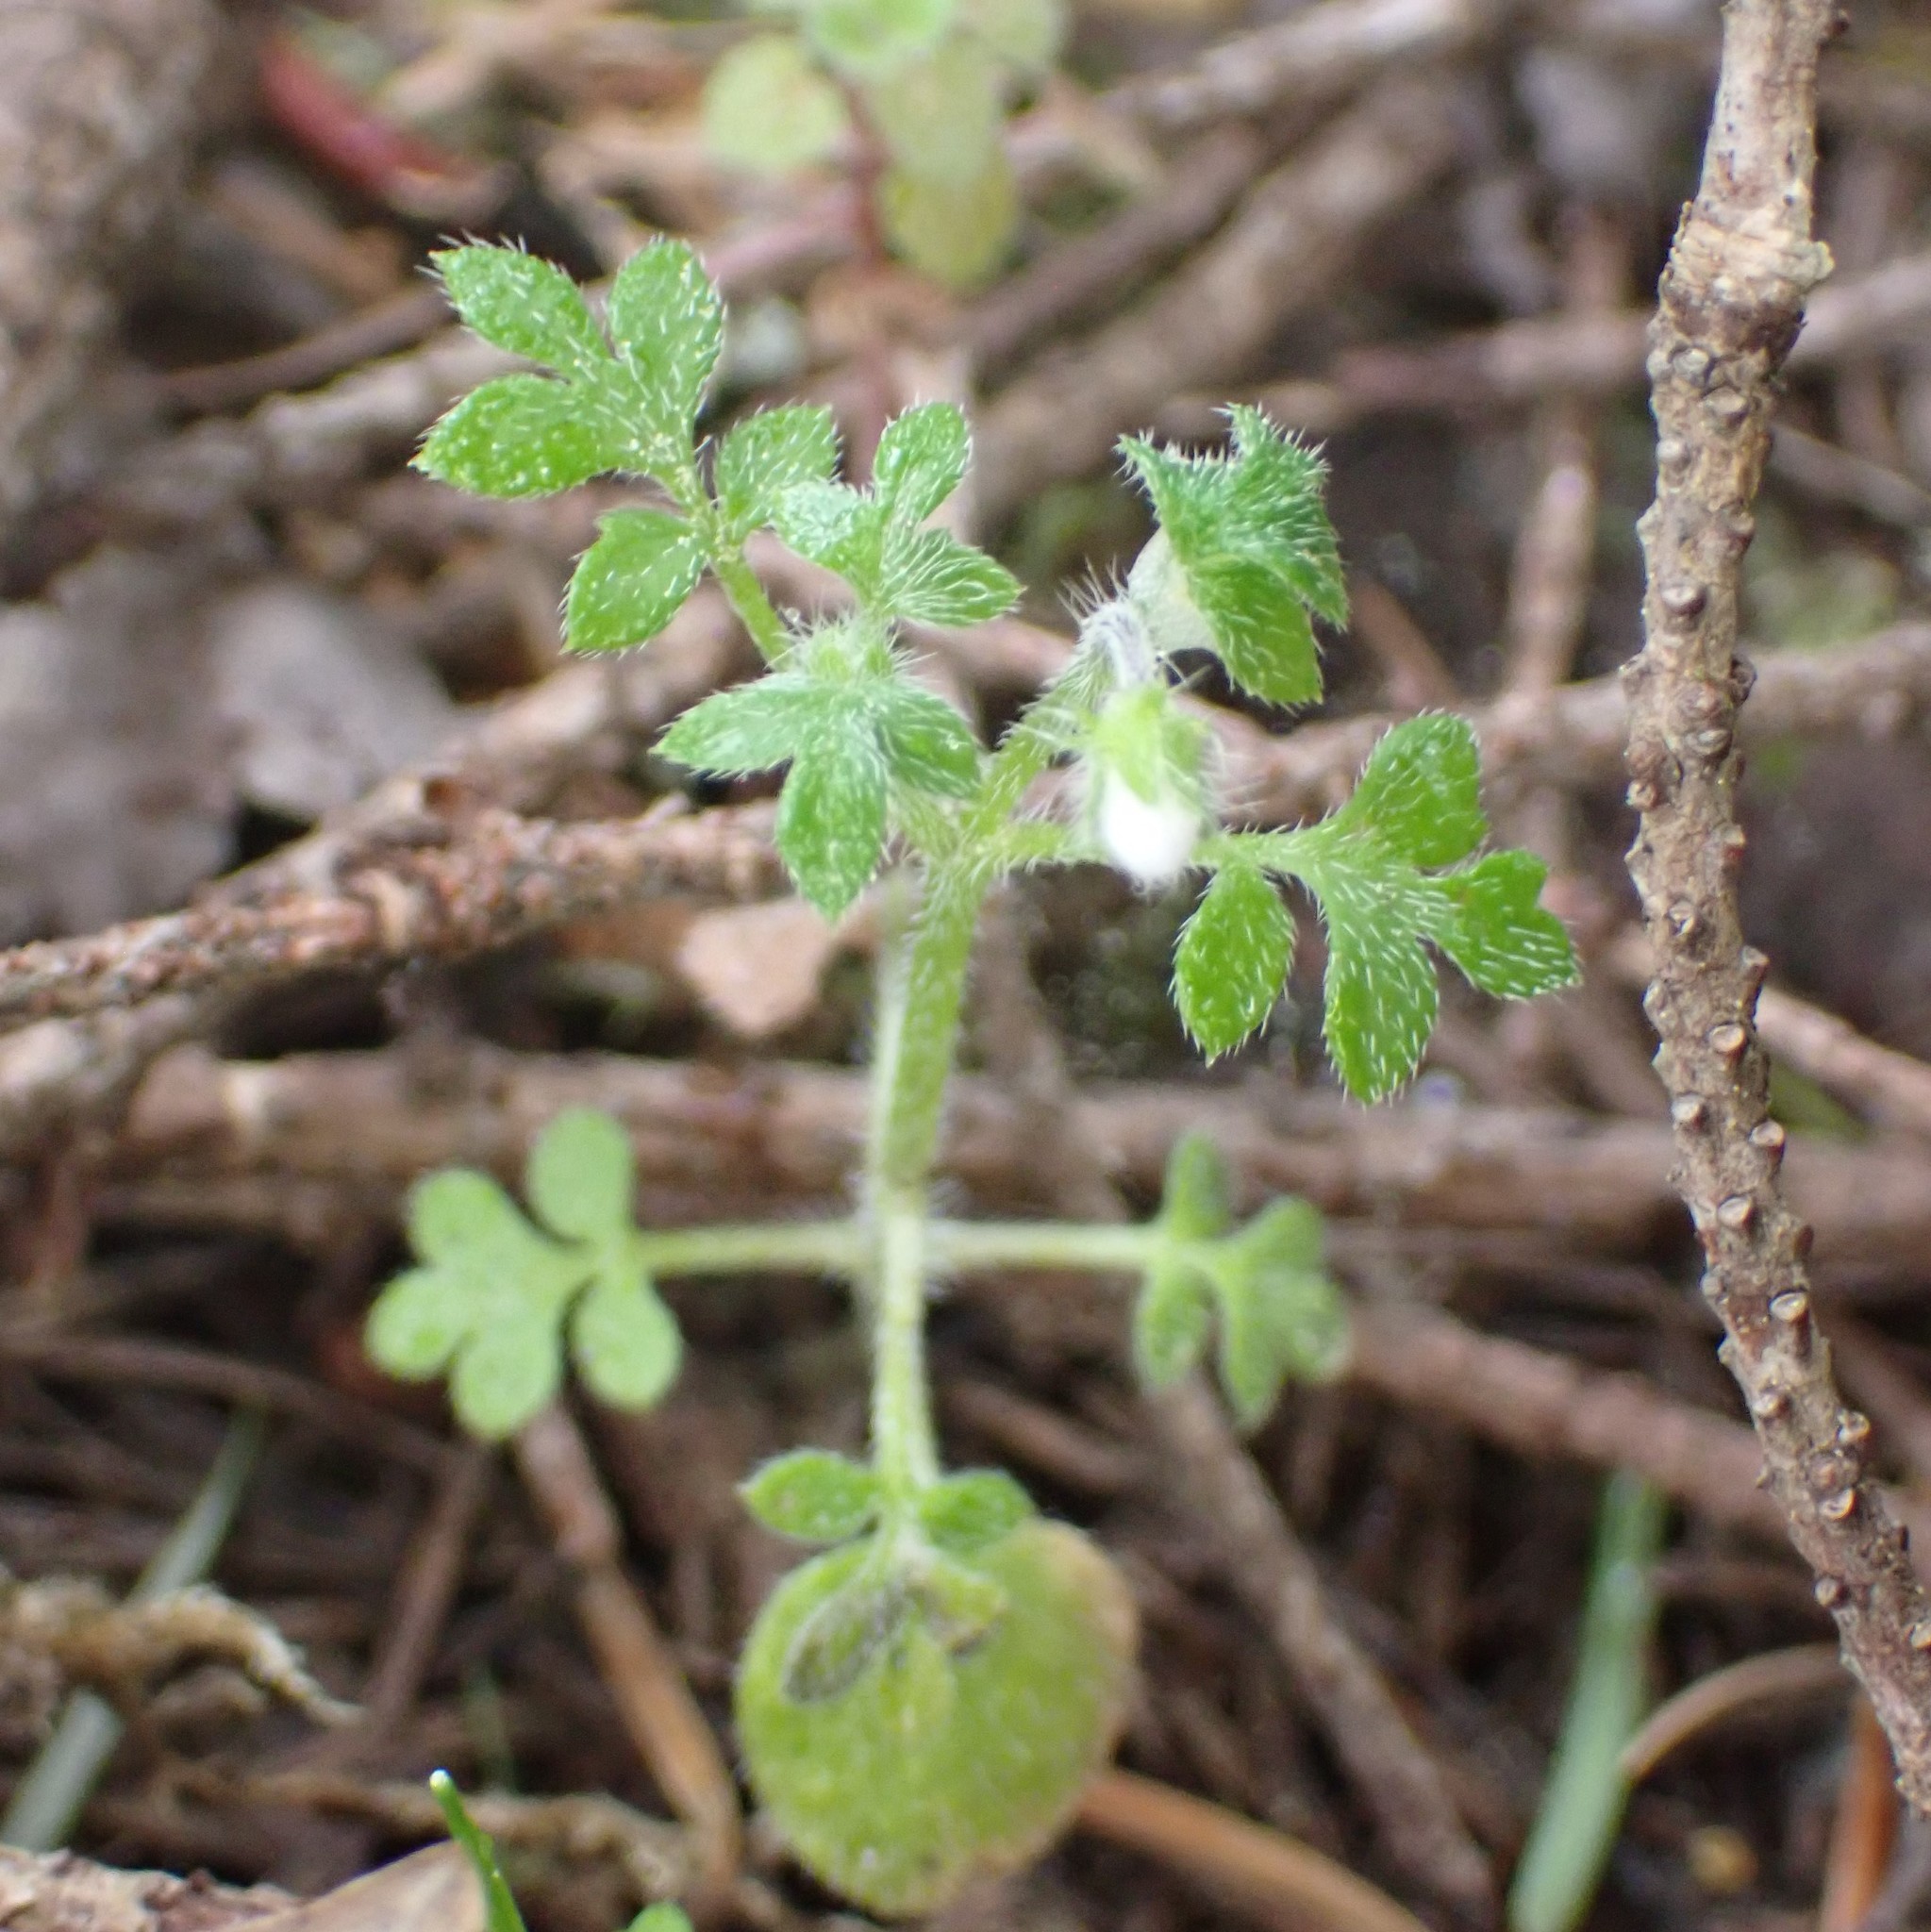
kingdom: Plantae
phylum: Tracheophyta
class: Magnoliopsida
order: Boraginales
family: Hydrophyllaceae
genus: Nemophila
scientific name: Nemophila parviflora
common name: Small-flowered baby-blue-eyes
